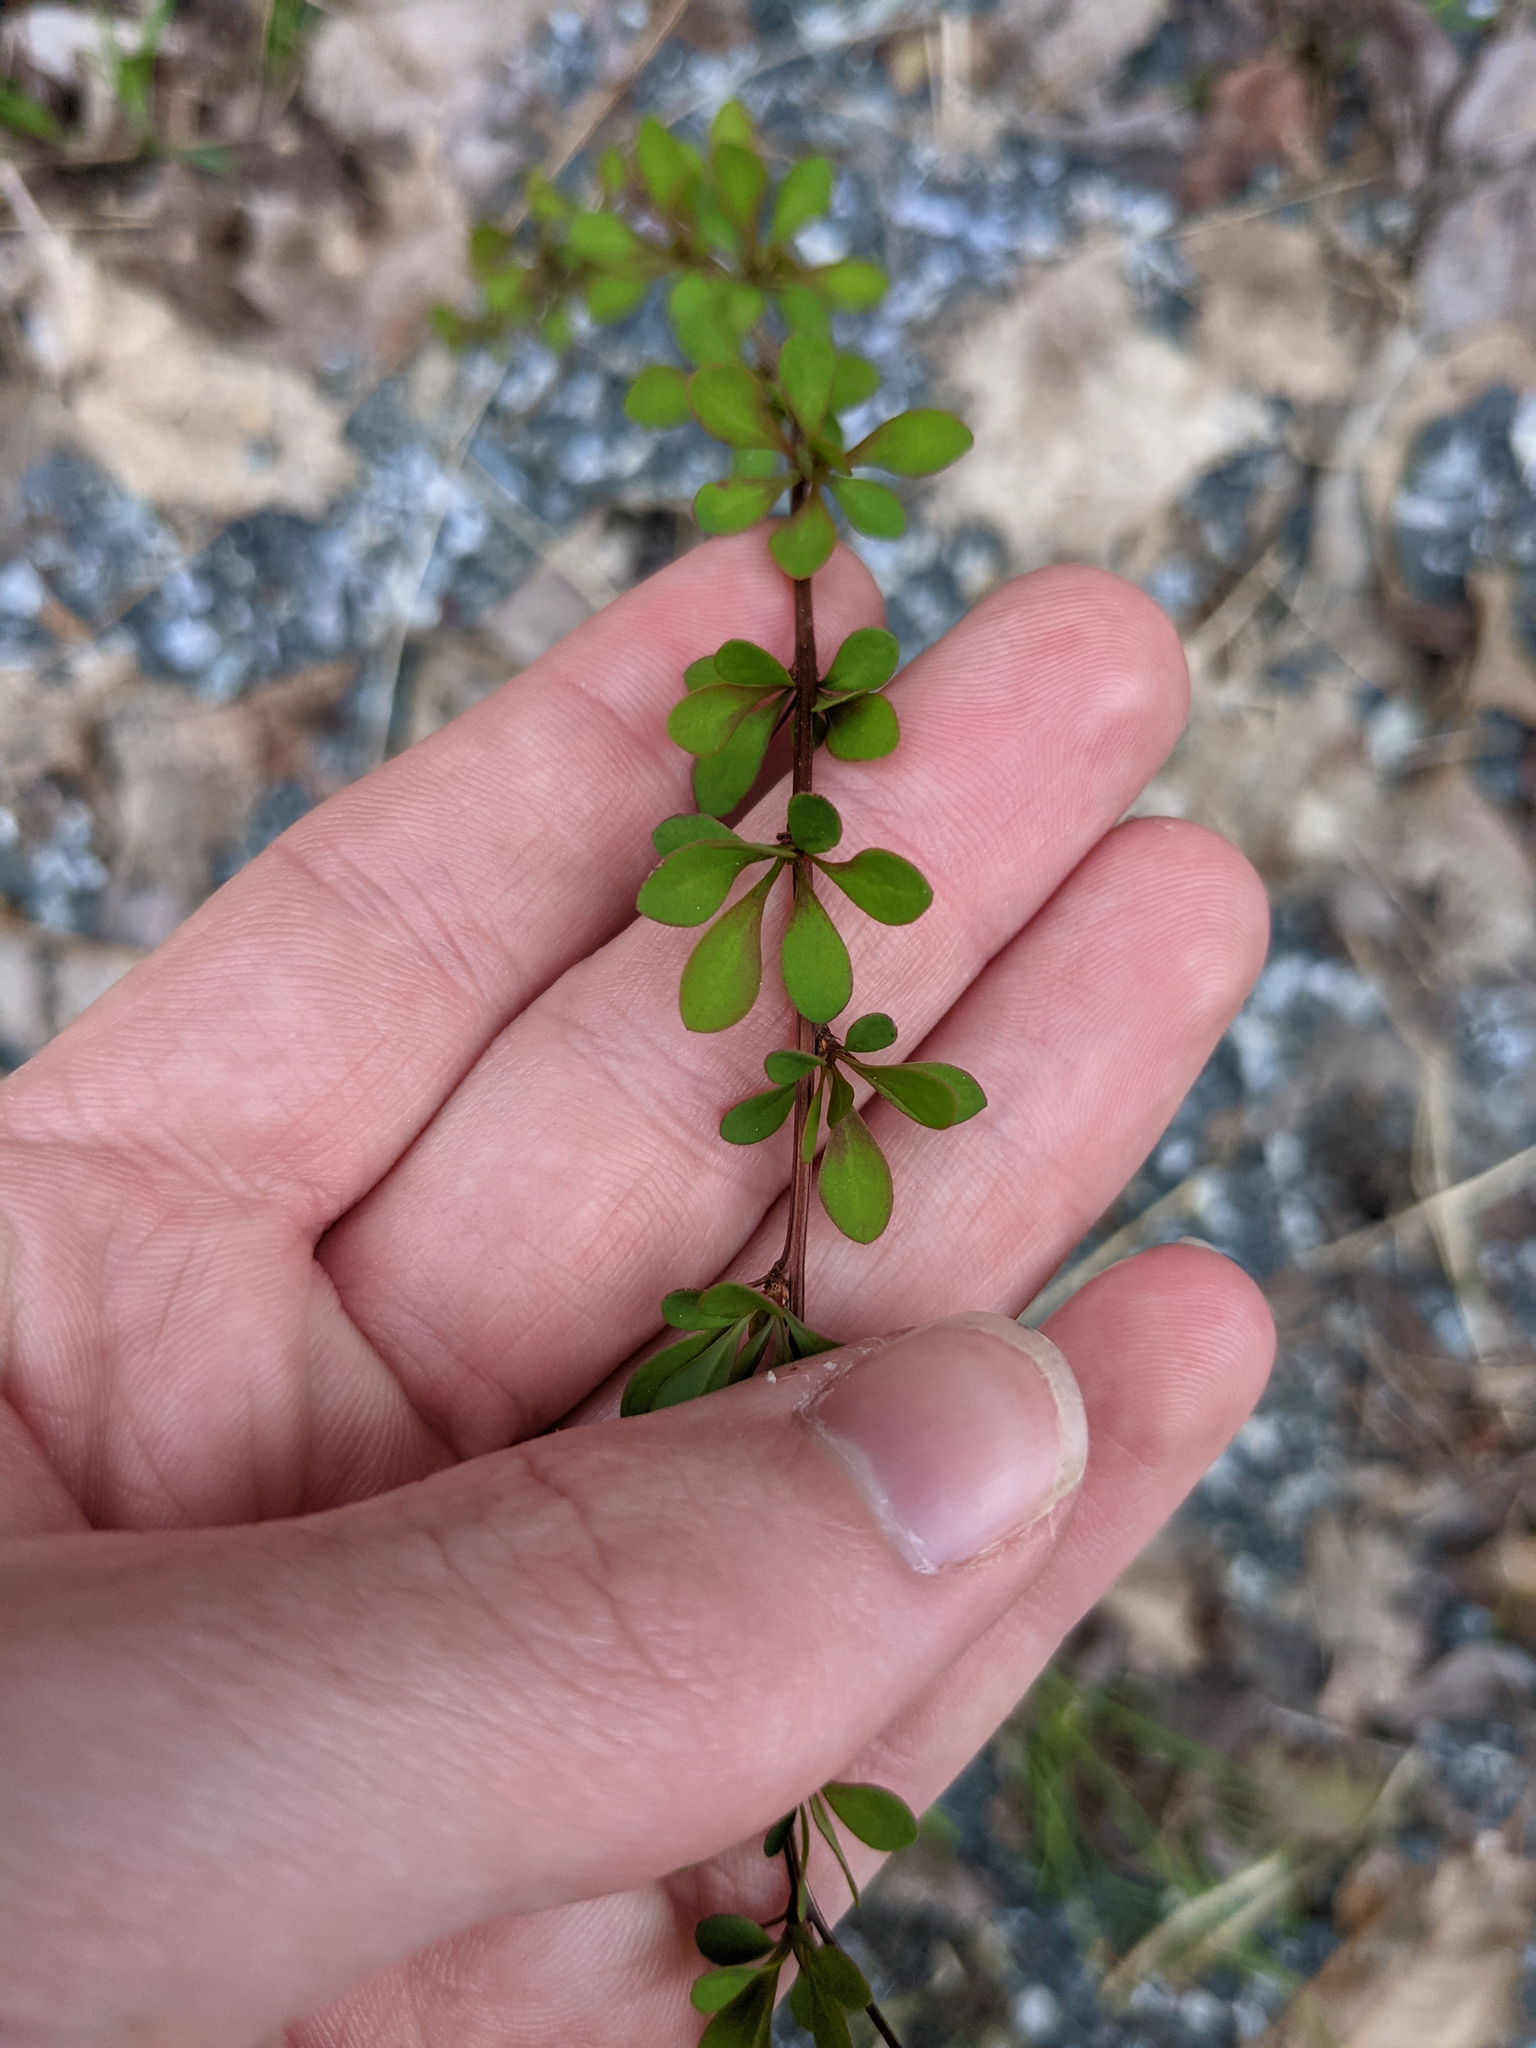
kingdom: Plantae
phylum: Tracheophyta
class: Magnoliopsida
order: Ranunculales
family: Berberidaceae
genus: Berberis
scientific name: Berberis thunbergii
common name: Japanese barberry
